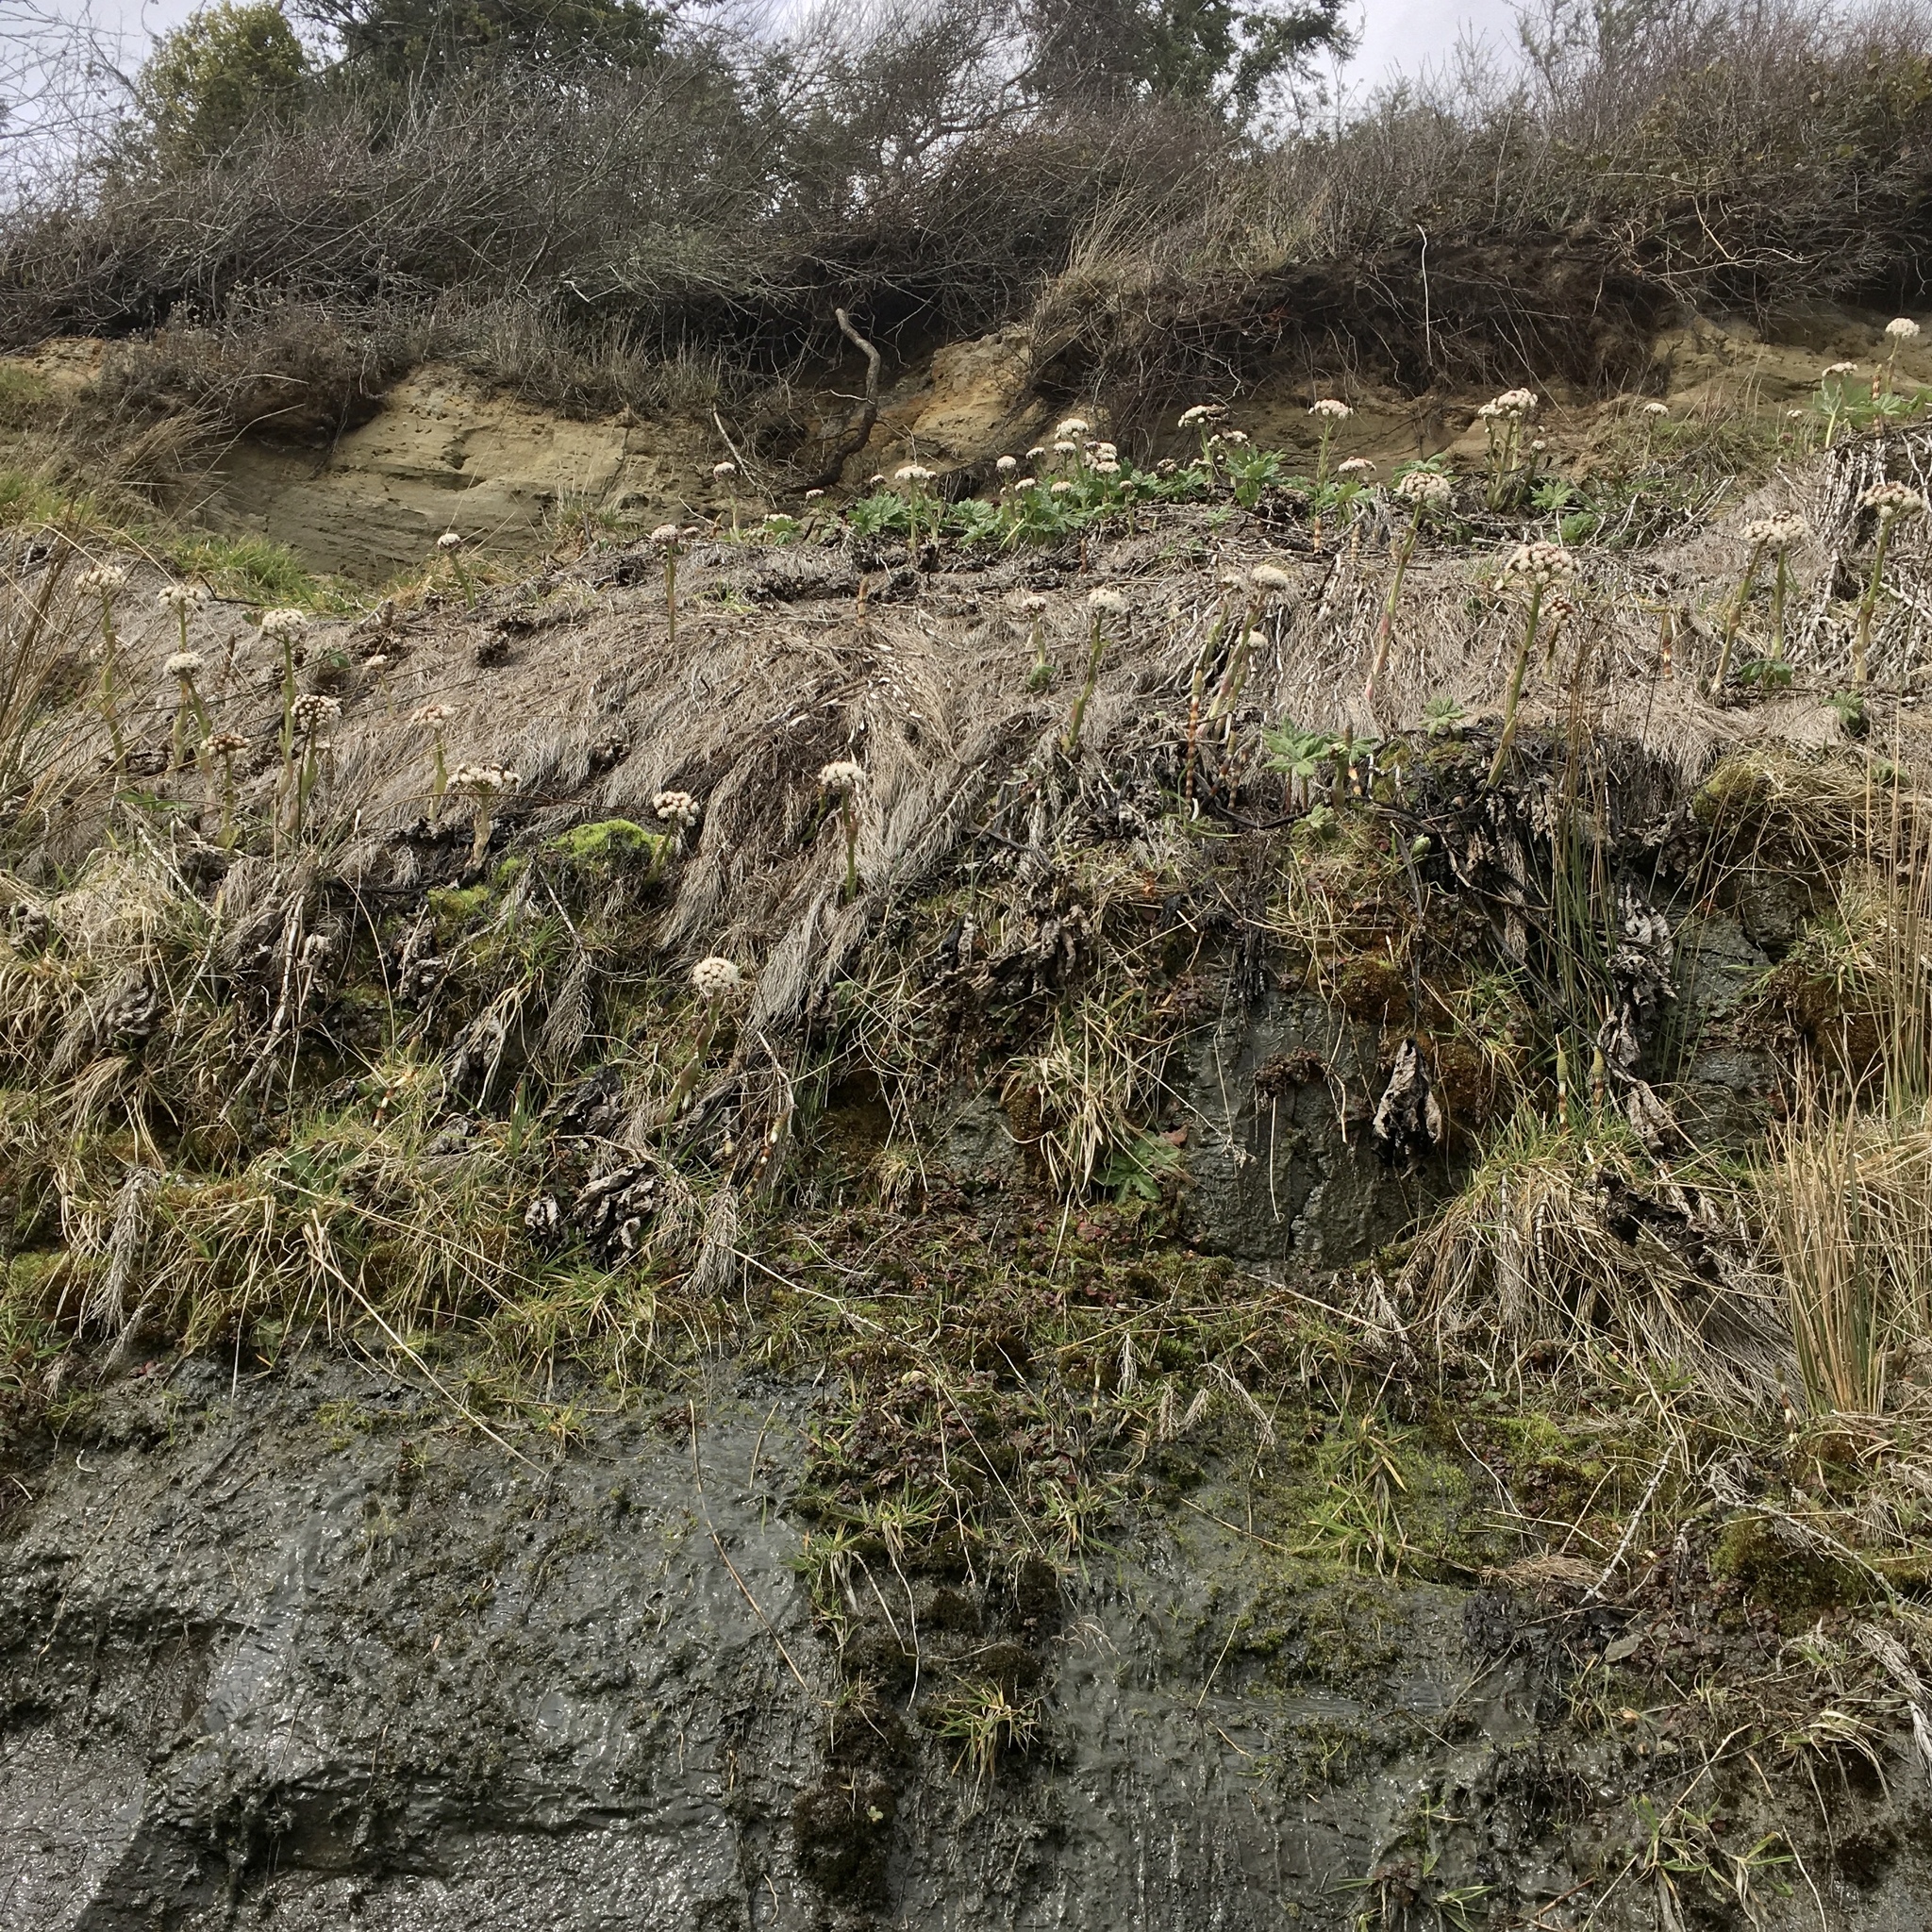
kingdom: Plantae
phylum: Tracheophyta
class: Magnoliopsida
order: Asterales
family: Asteraceae
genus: Petasites
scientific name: Petasites frigidus
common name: Arctic butterbur
